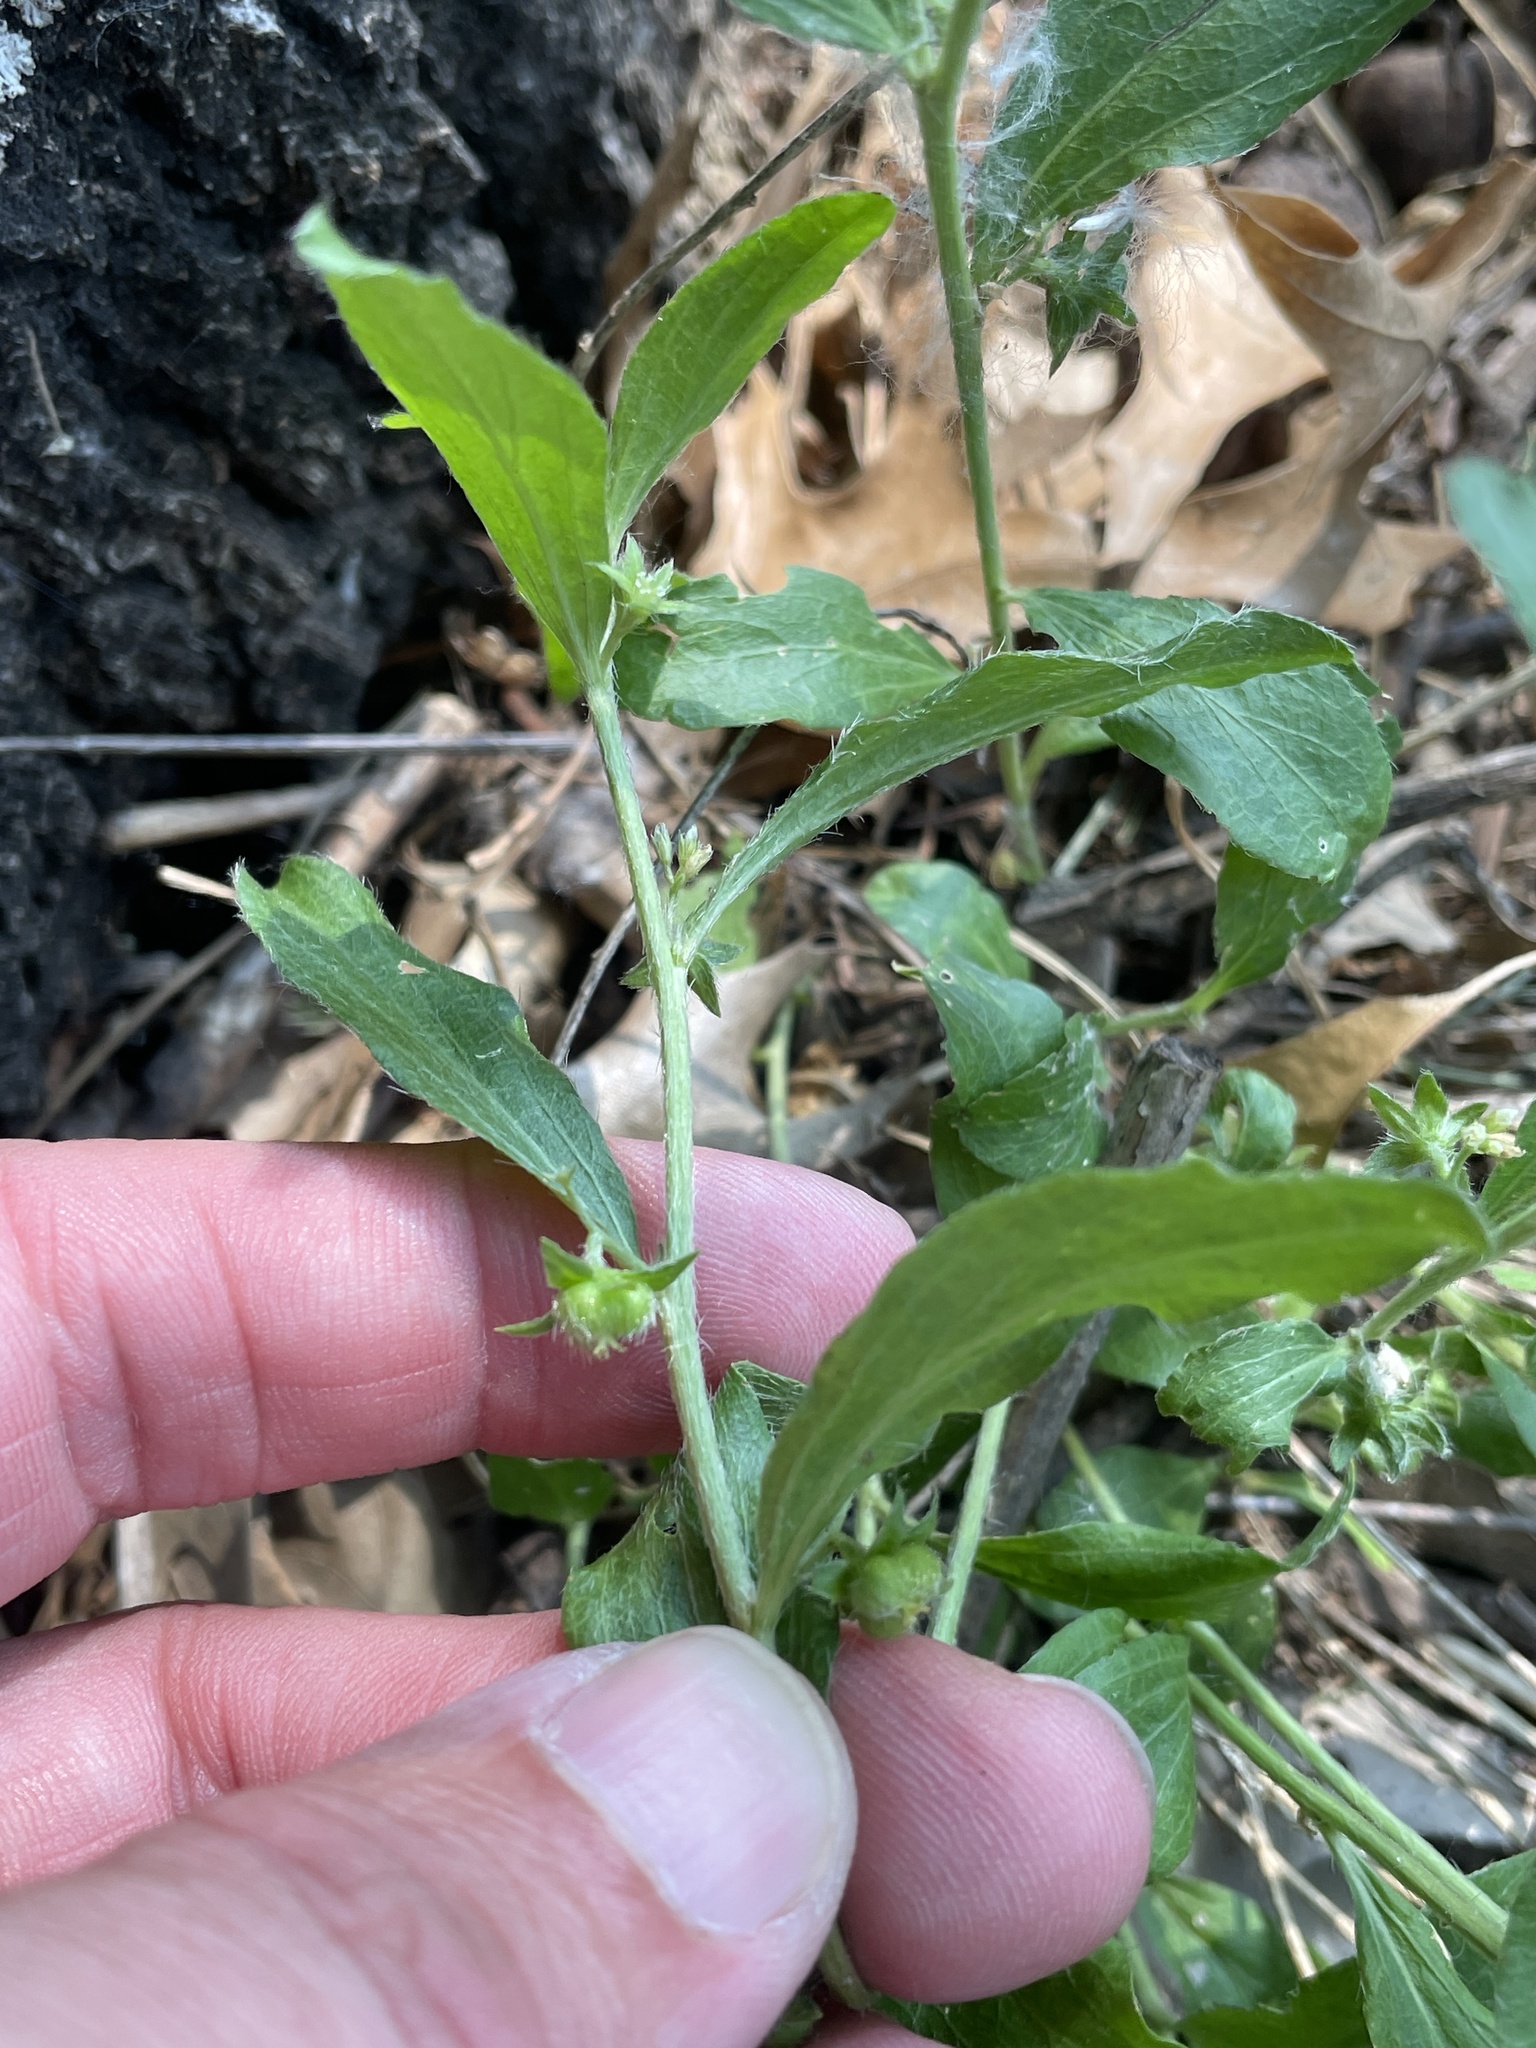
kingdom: Plantae
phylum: Tracheophyta
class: Magnoliopsida
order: Malpighiales
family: Euphorbiaceae
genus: Ditaxis
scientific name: Ditaxis humilis
